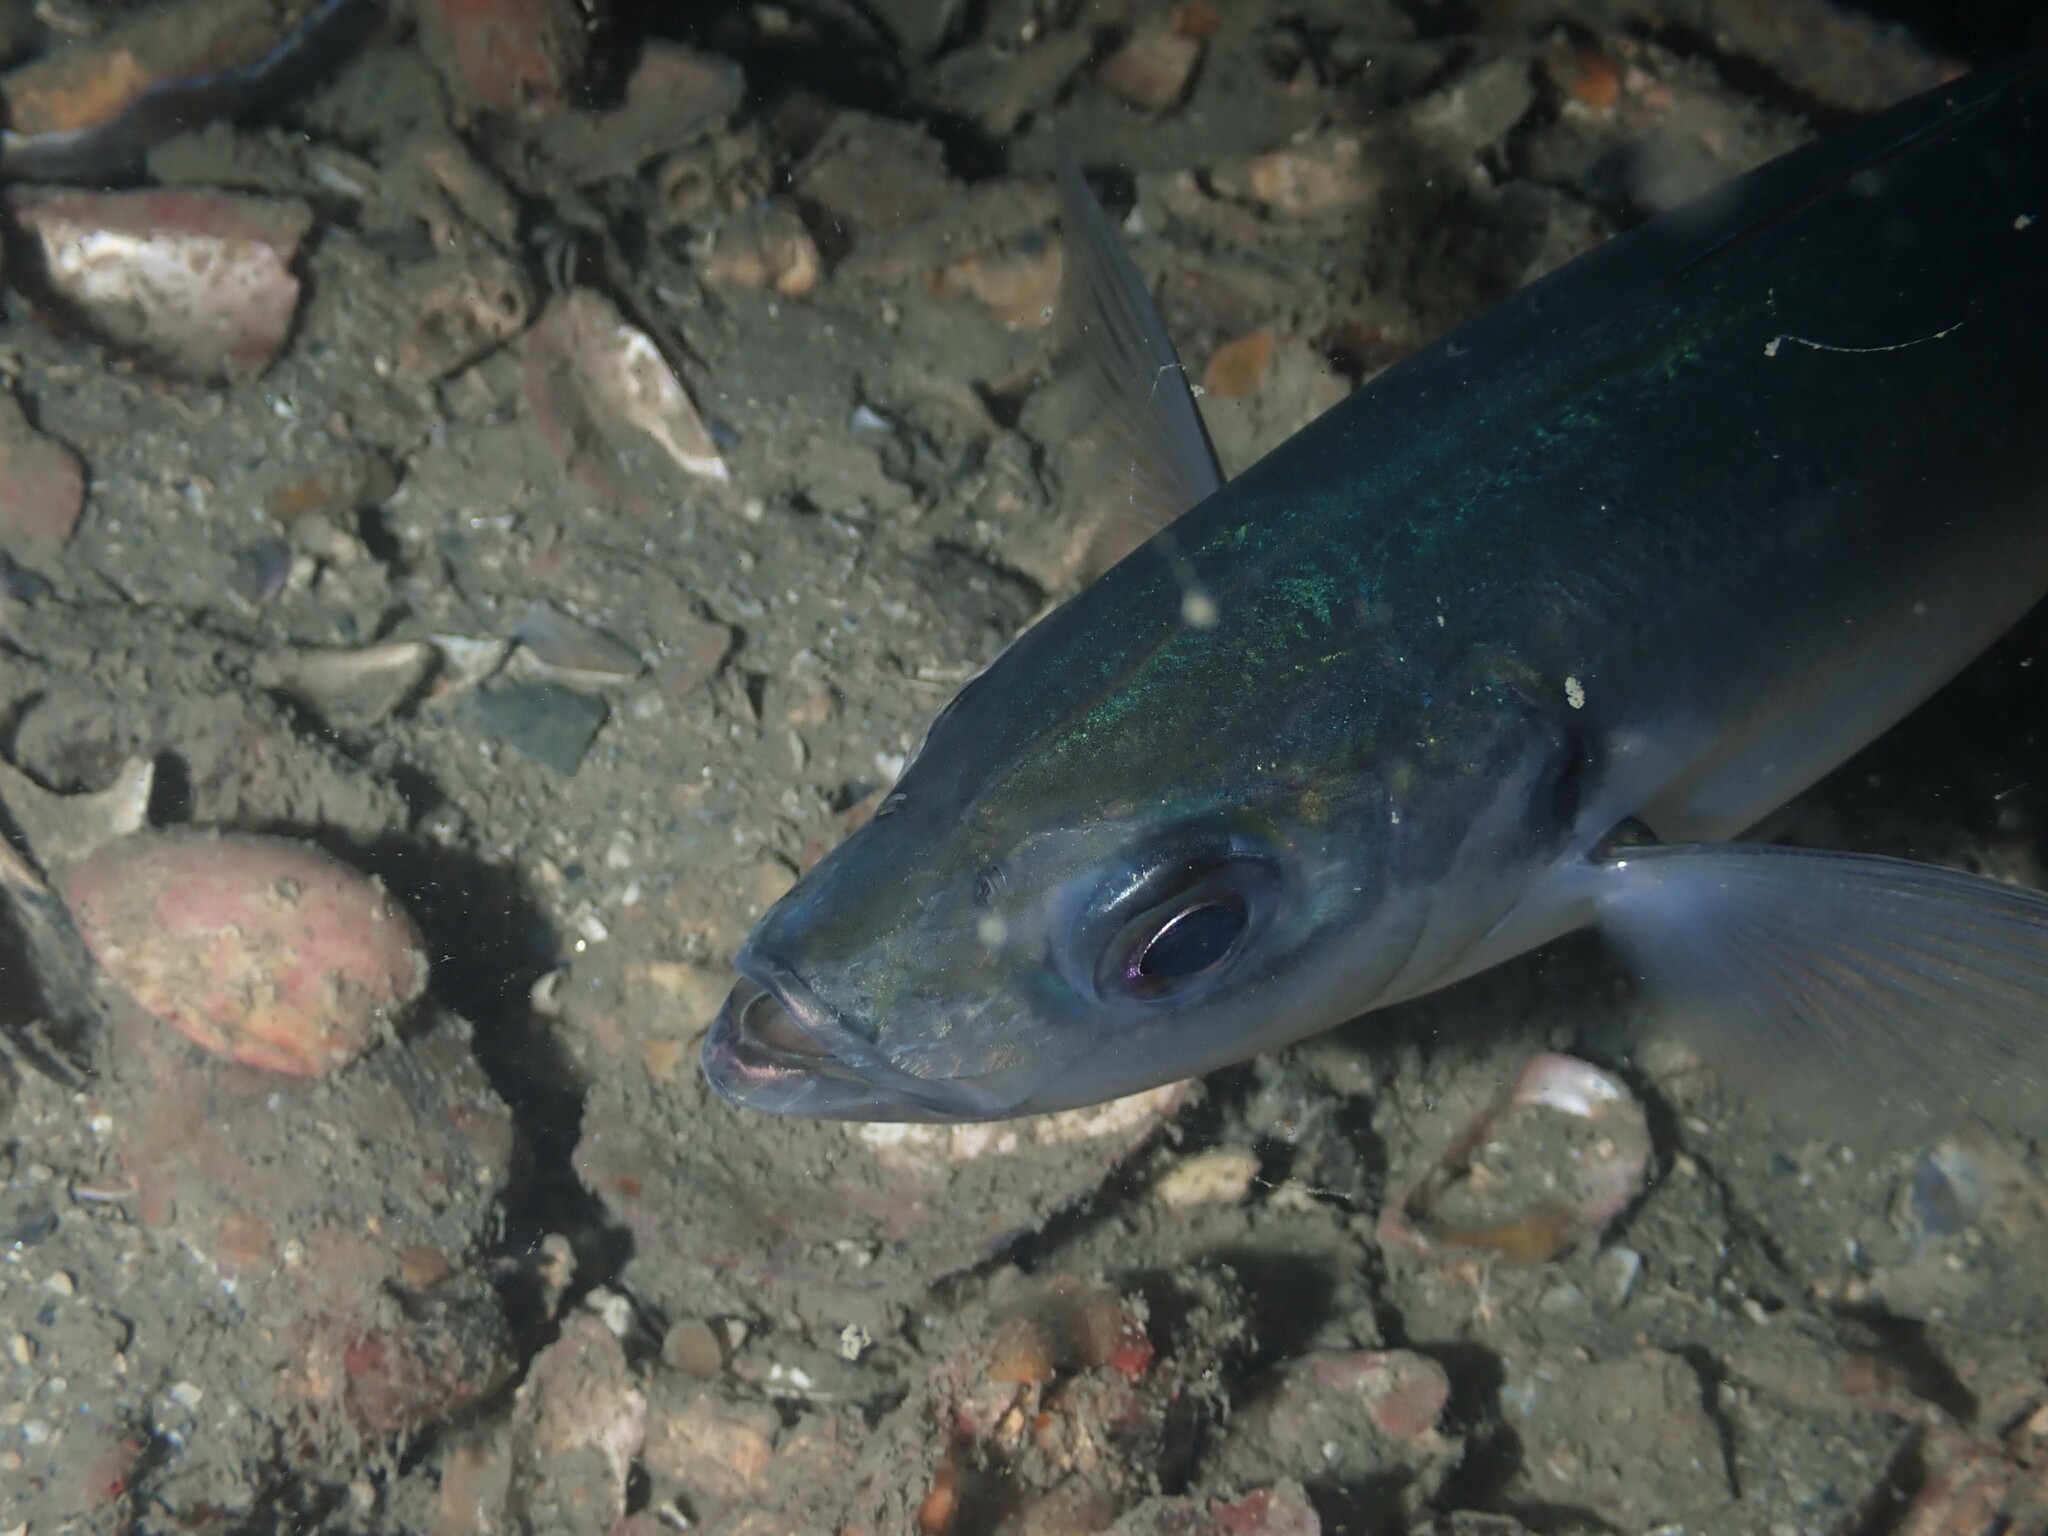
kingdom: Animalia
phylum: Chordata
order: Perciformes
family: Carangidae
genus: Trachurus
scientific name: Trachurus novaezelandiae
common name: Yellowtail horse mackerel
